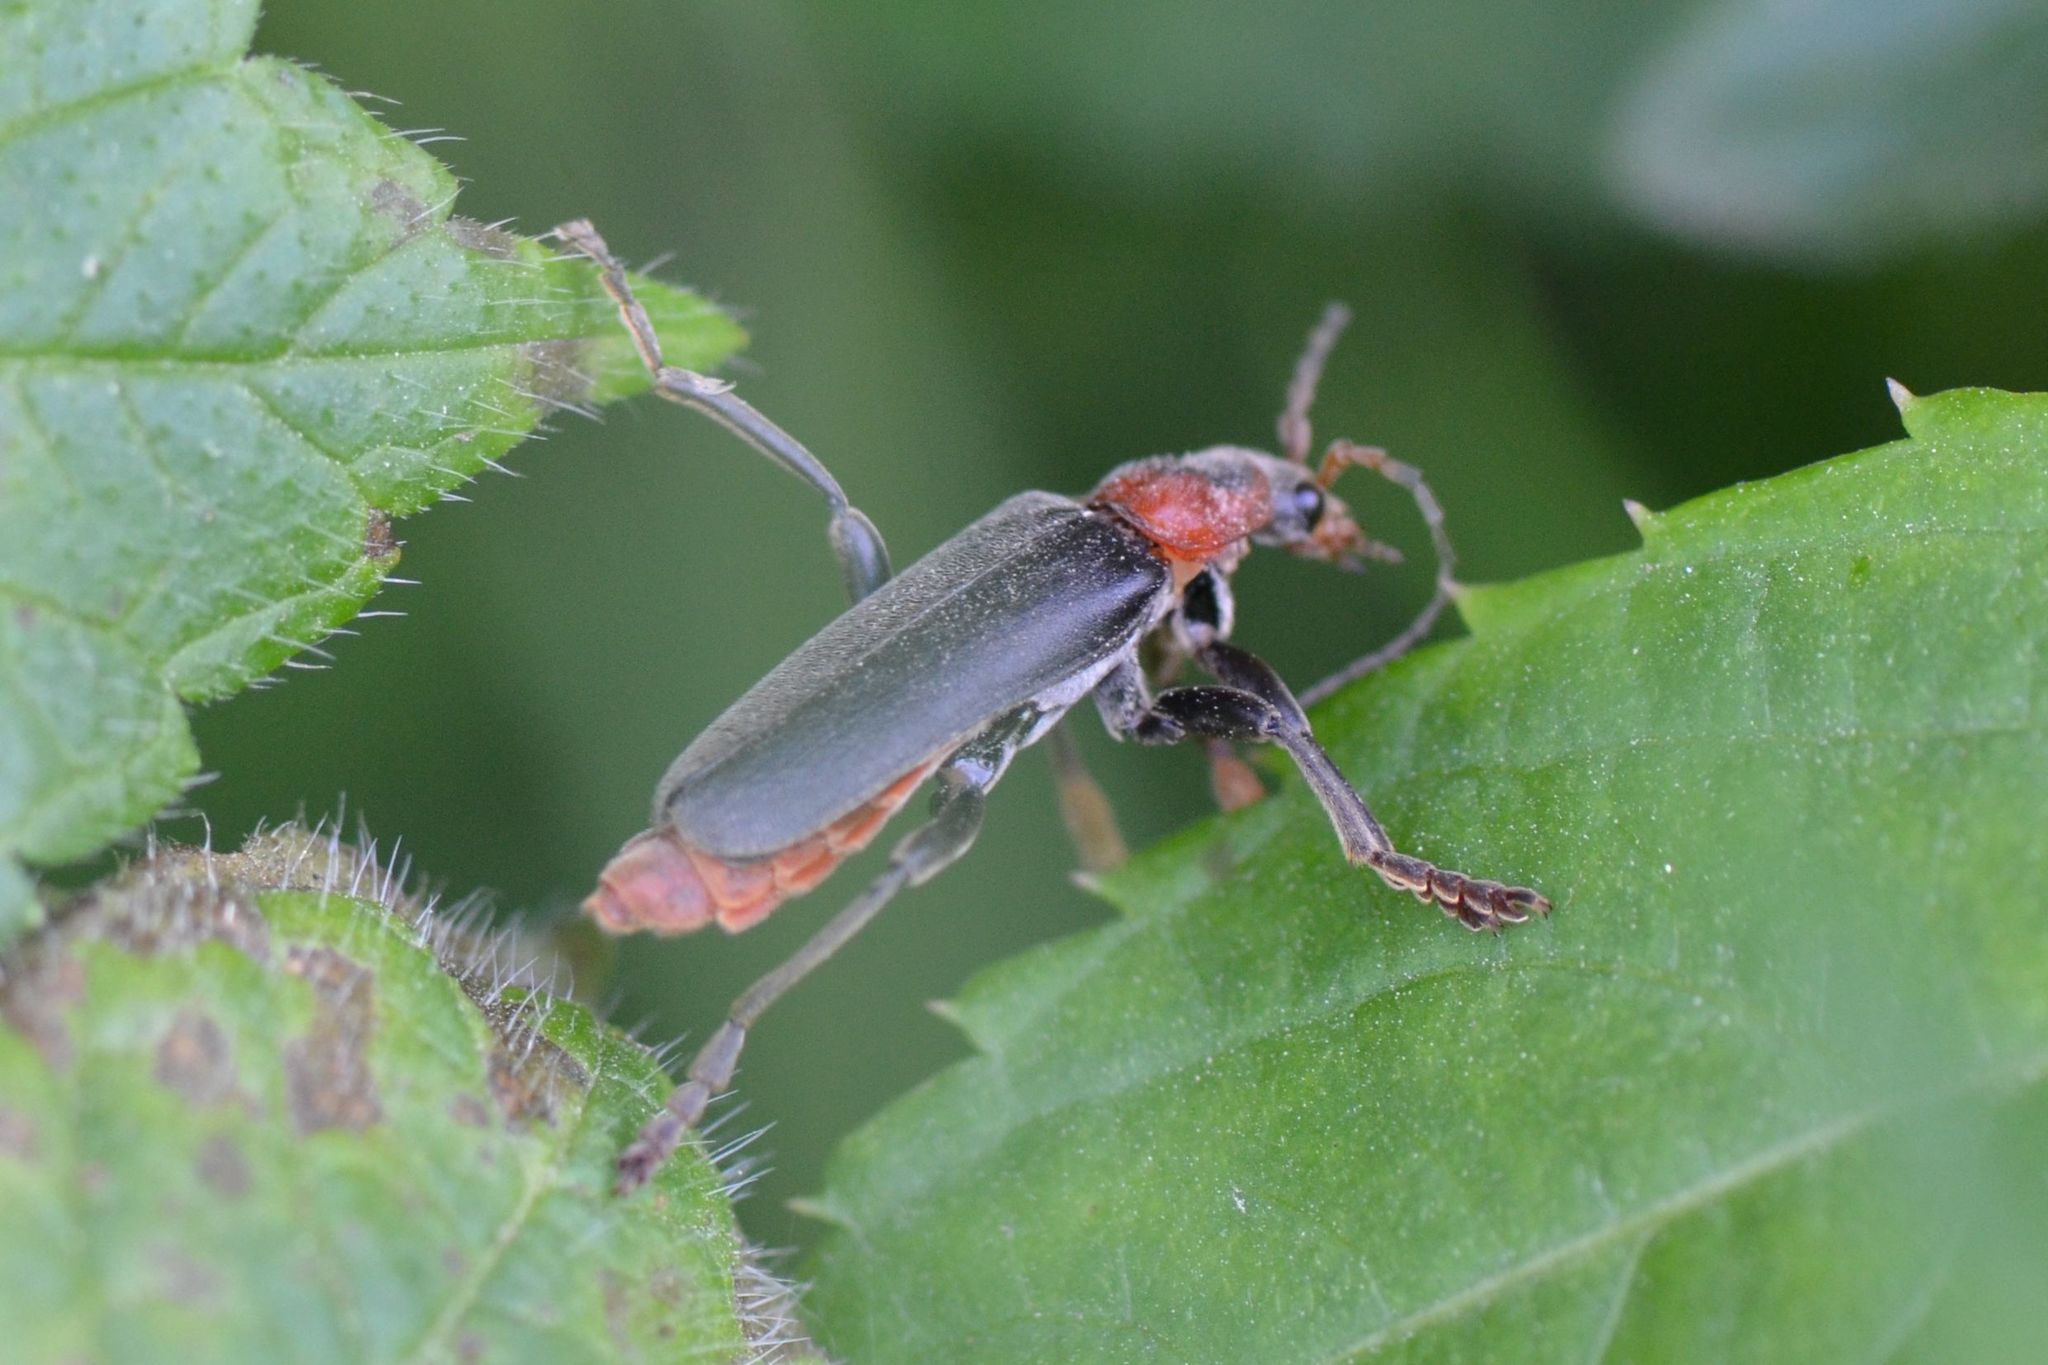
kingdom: Animalia
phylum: Arthropoda
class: Insecta
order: Coleoptera
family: Cantharidae
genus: Cantharis
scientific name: Cantharis fusca
